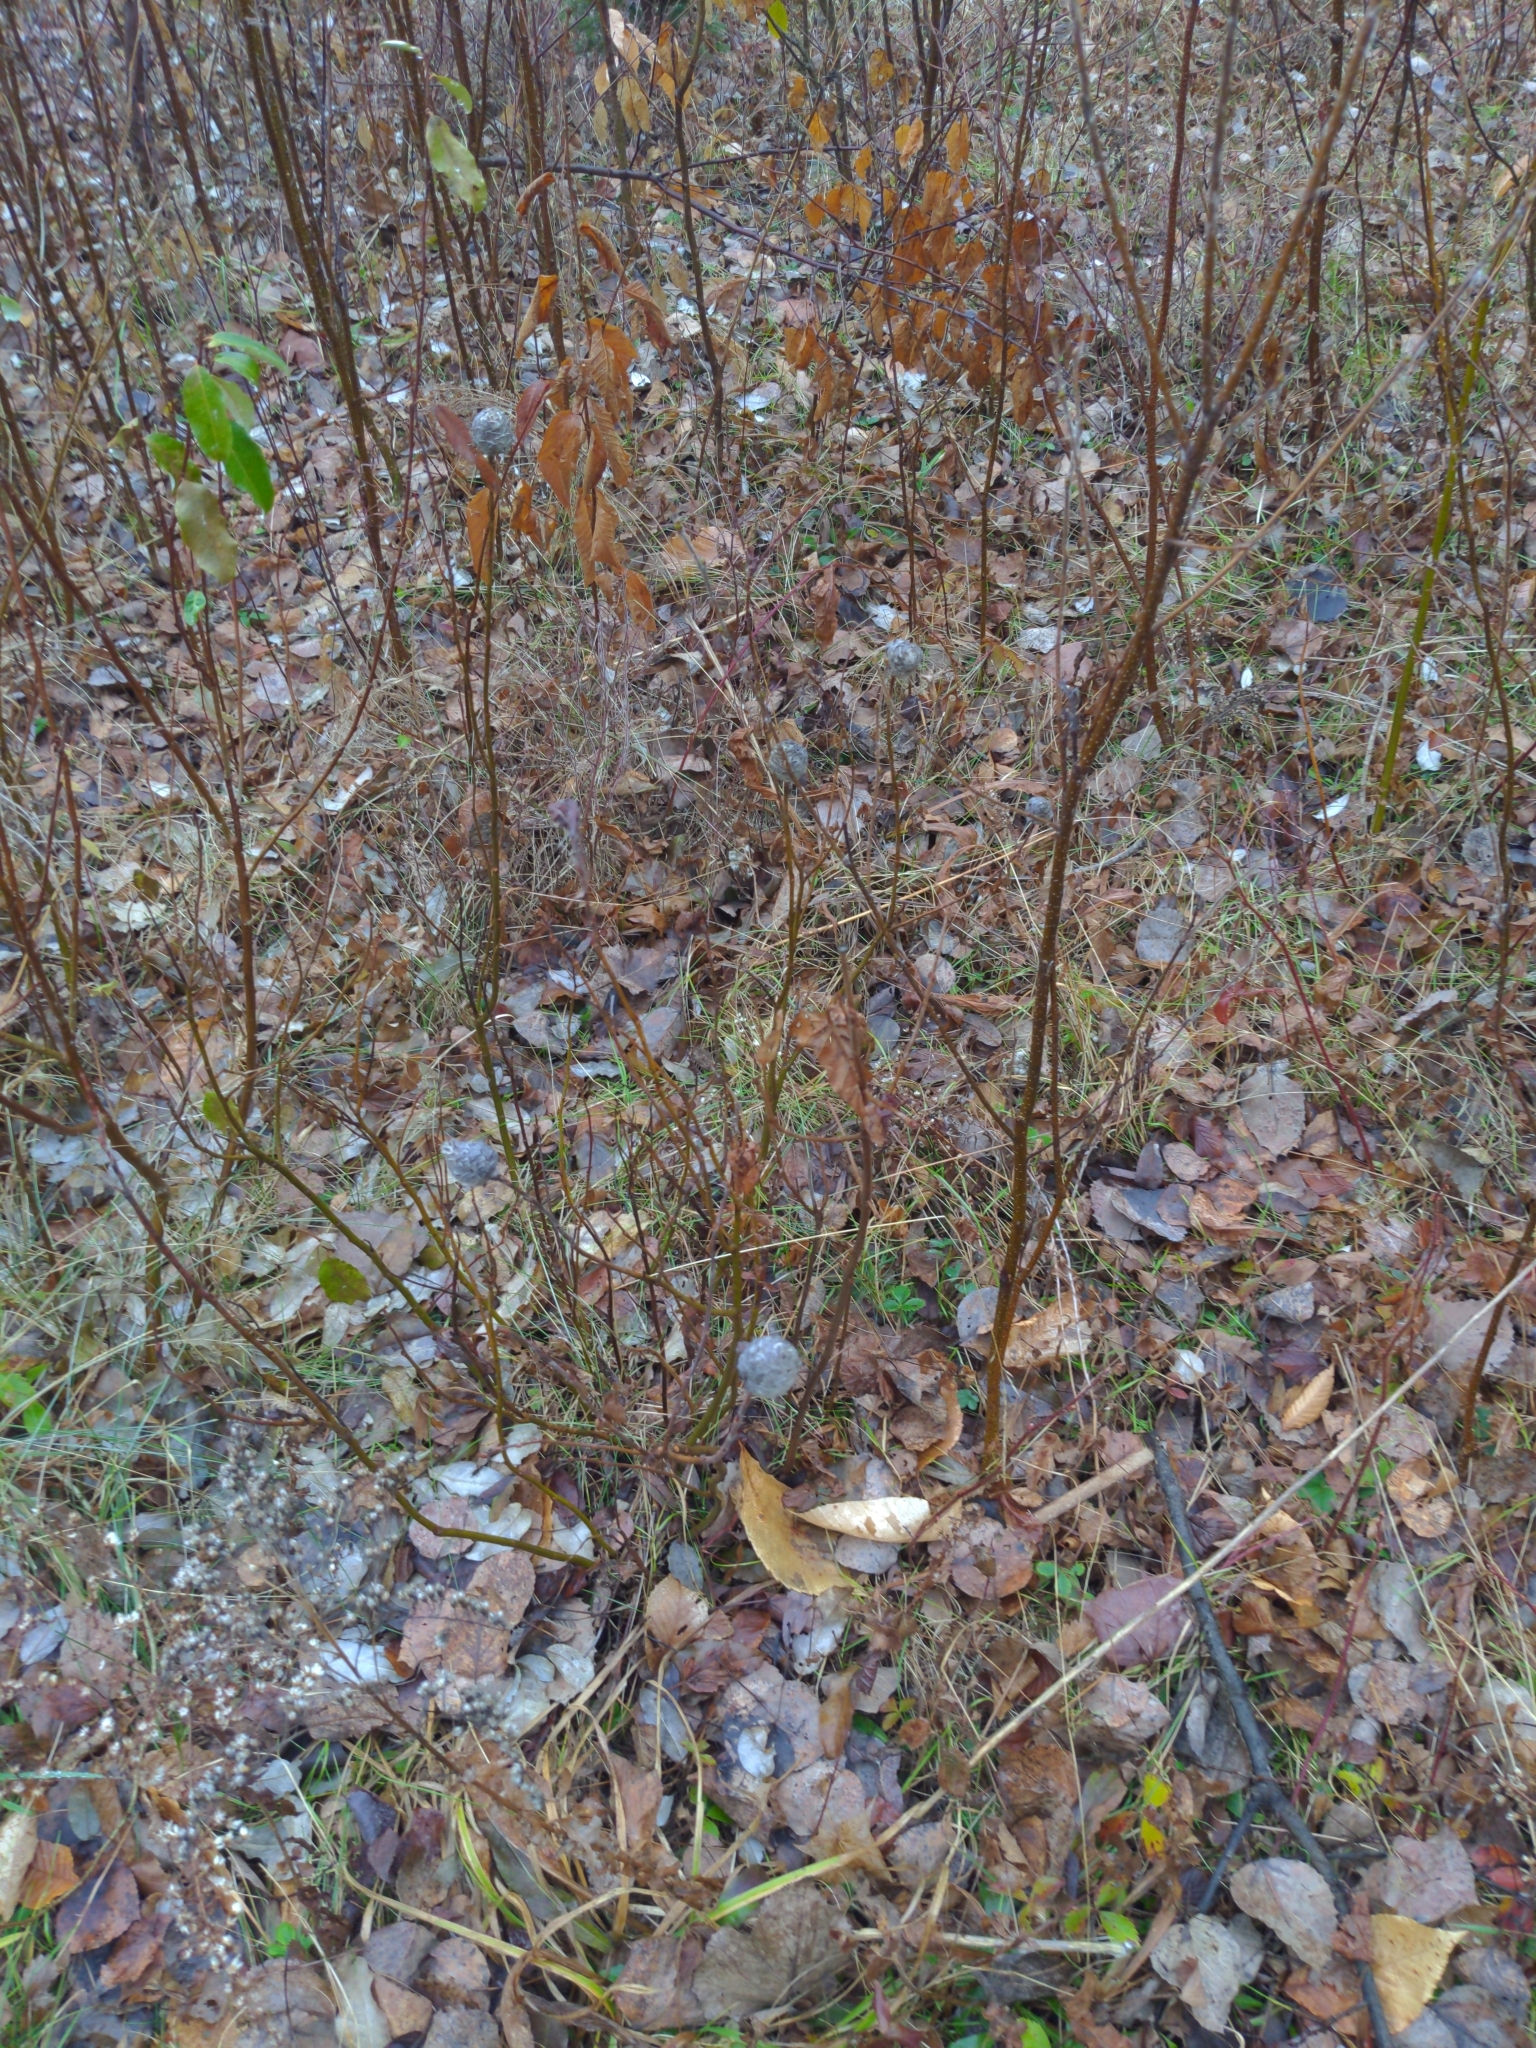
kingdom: Animalia
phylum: Arthropoda
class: Insecta
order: Diptera
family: Cecidomyiidae
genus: Rabdophaga
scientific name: Rabdophaga strobiloides
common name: Willow pinecone gall midge
